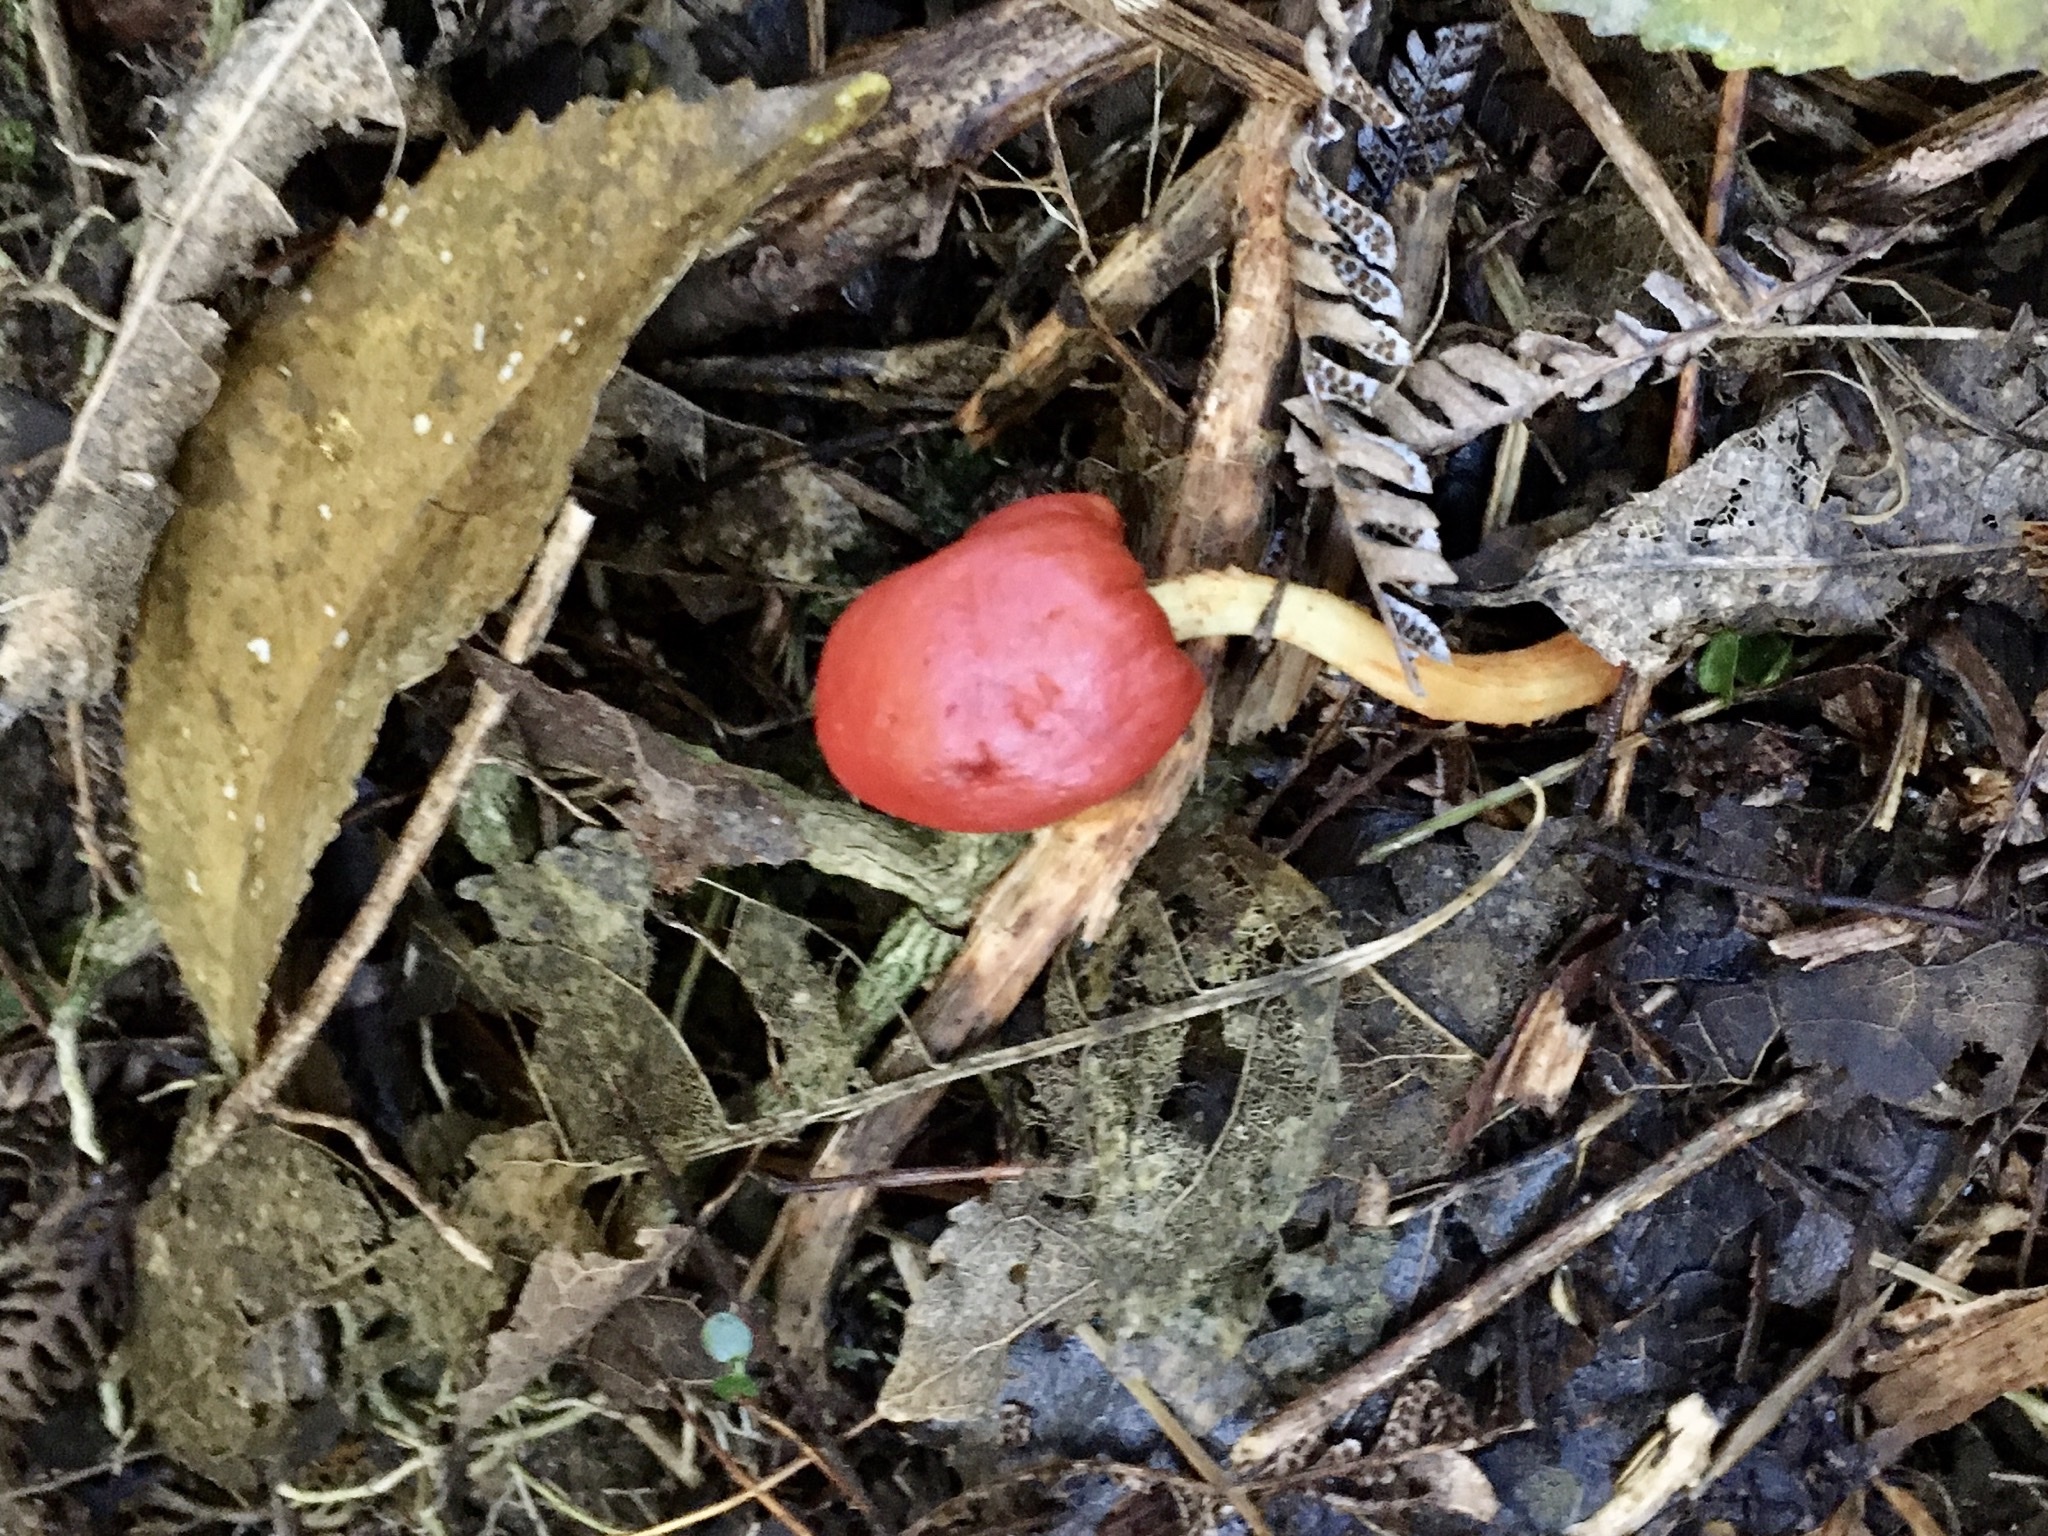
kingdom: Fungi
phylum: Basidiomycota
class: Agaricomycetes
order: Agaricales
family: Strophariaceae
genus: Leratiomyces
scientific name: Leratiomyces erythrocephalus
